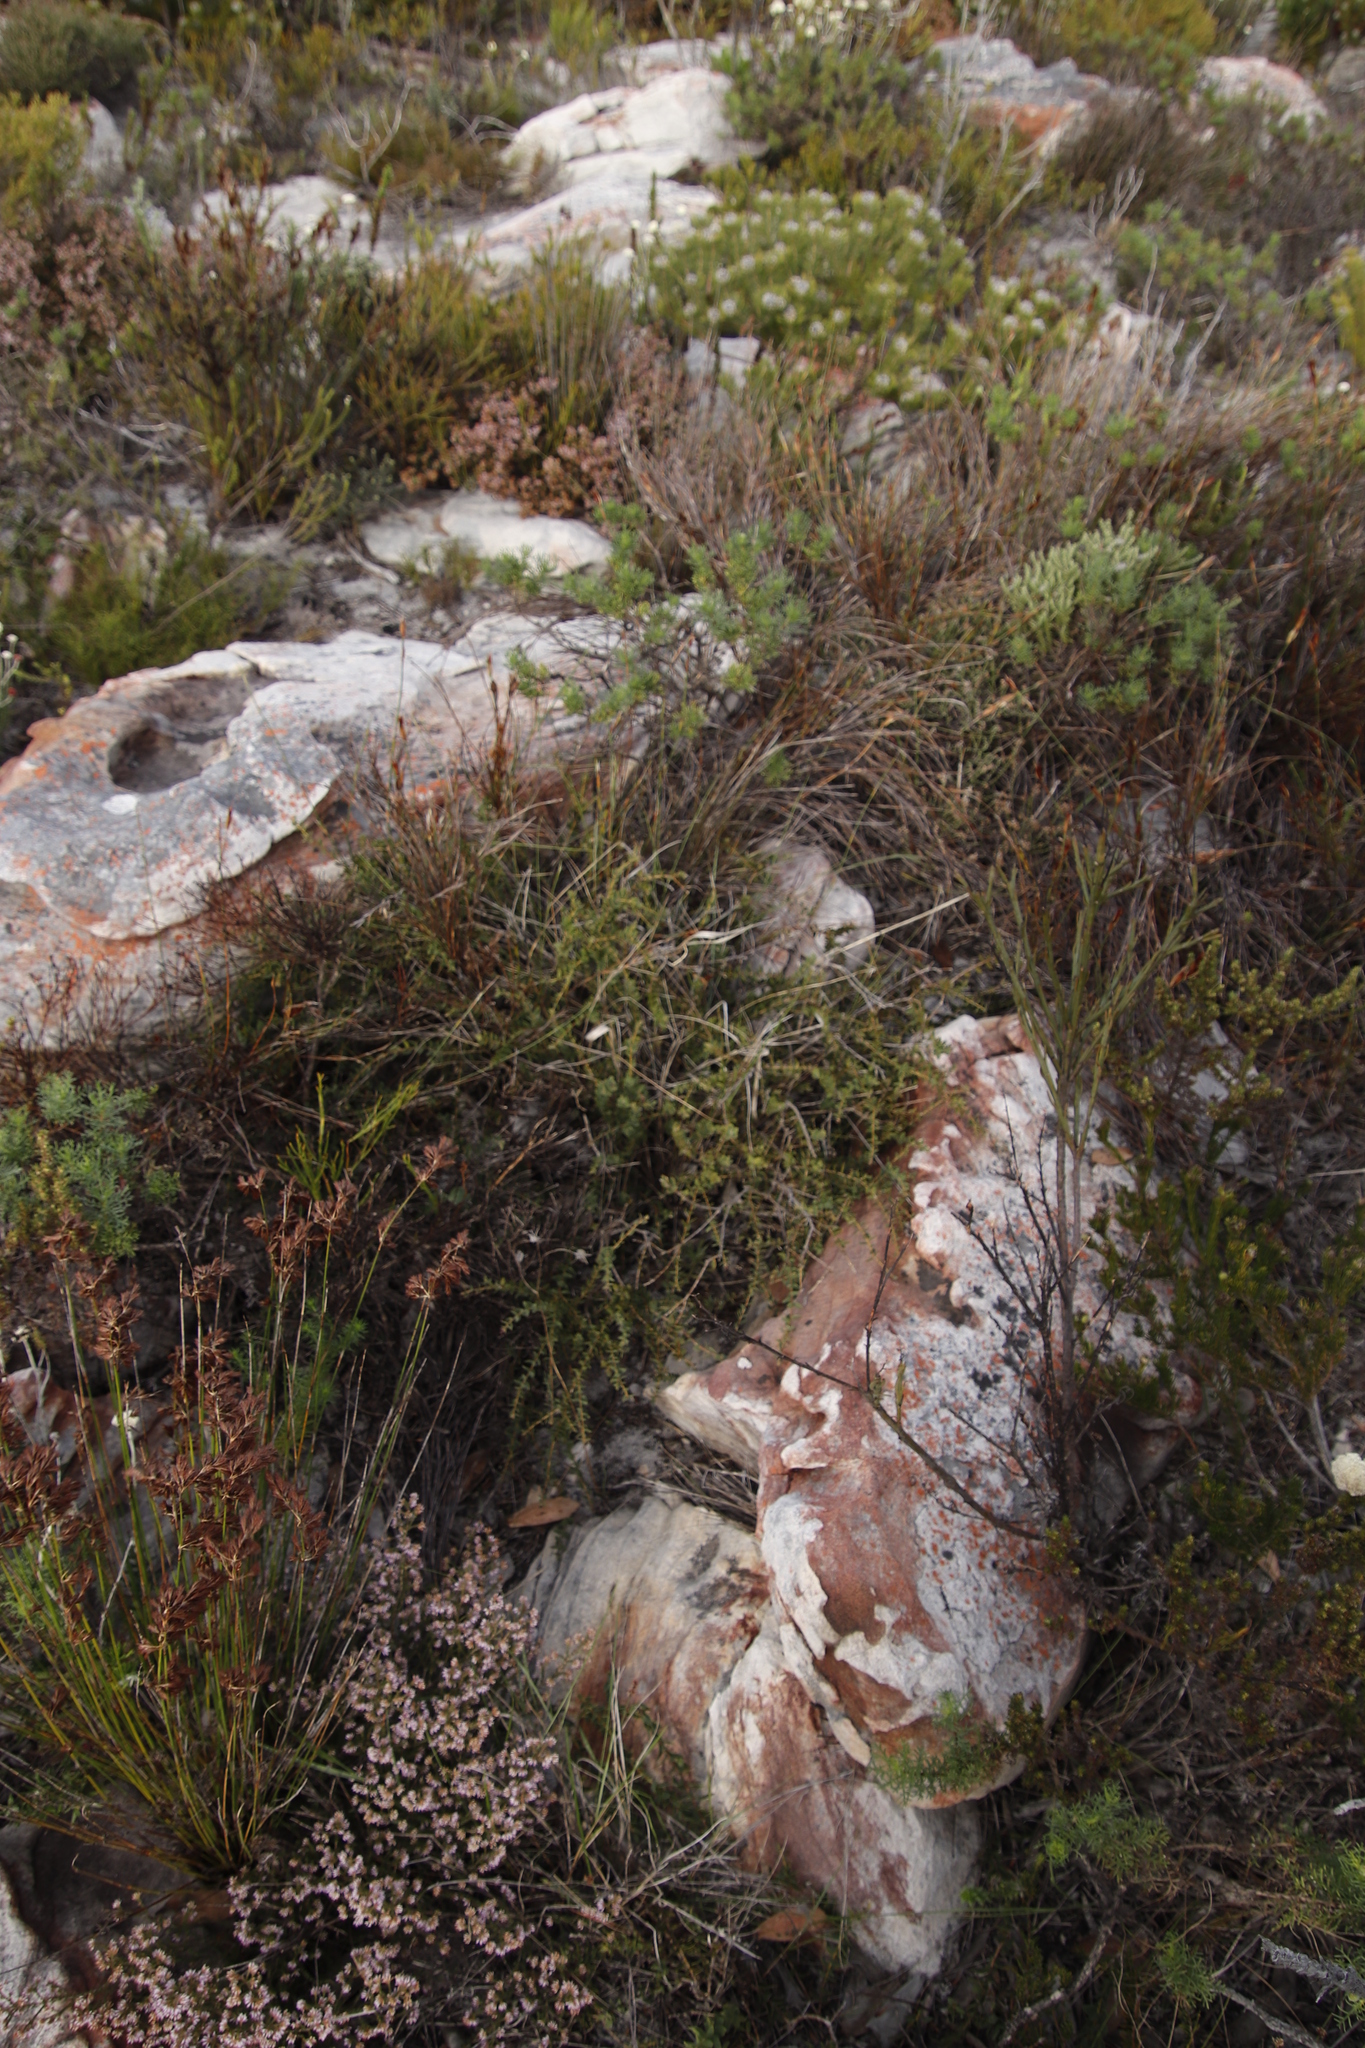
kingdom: Plantae
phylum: Tracheophyta
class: Magnoliopsida
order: Fabales
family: Fabaceae
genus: Liparia
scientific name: Liparia parva
